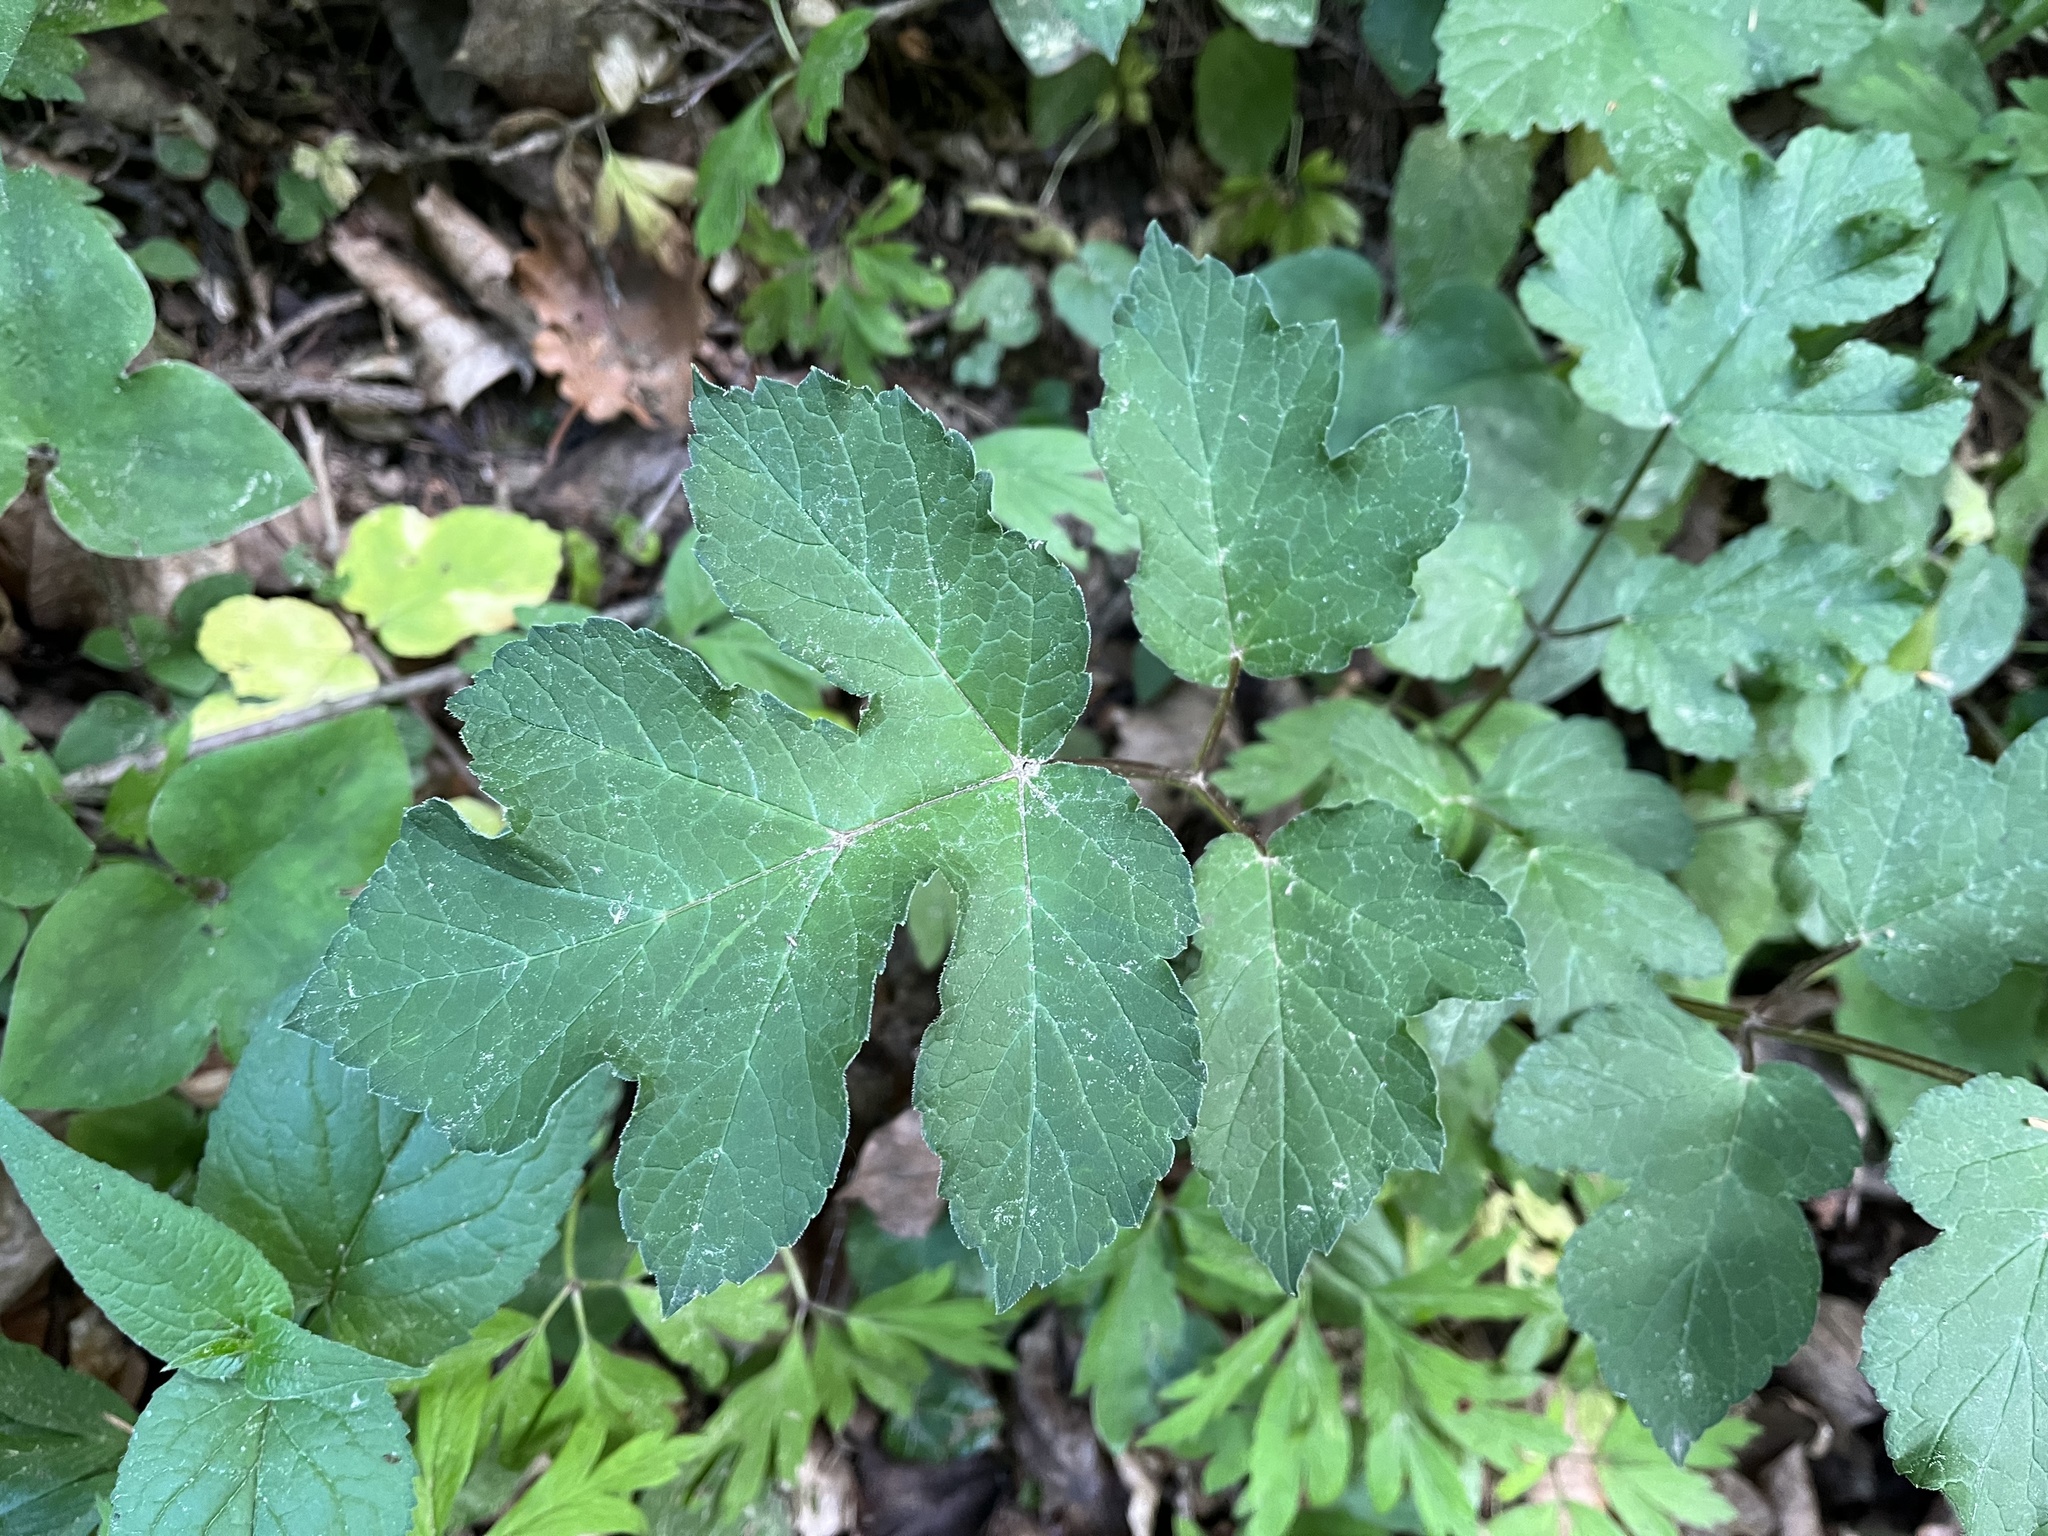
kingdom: Plantae
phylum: Tracheophyta
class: Magnoliopsida
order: Apiales
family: Apiaceae
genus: Heracleum
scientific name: Heracleum sphondylium
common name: Hogweed
